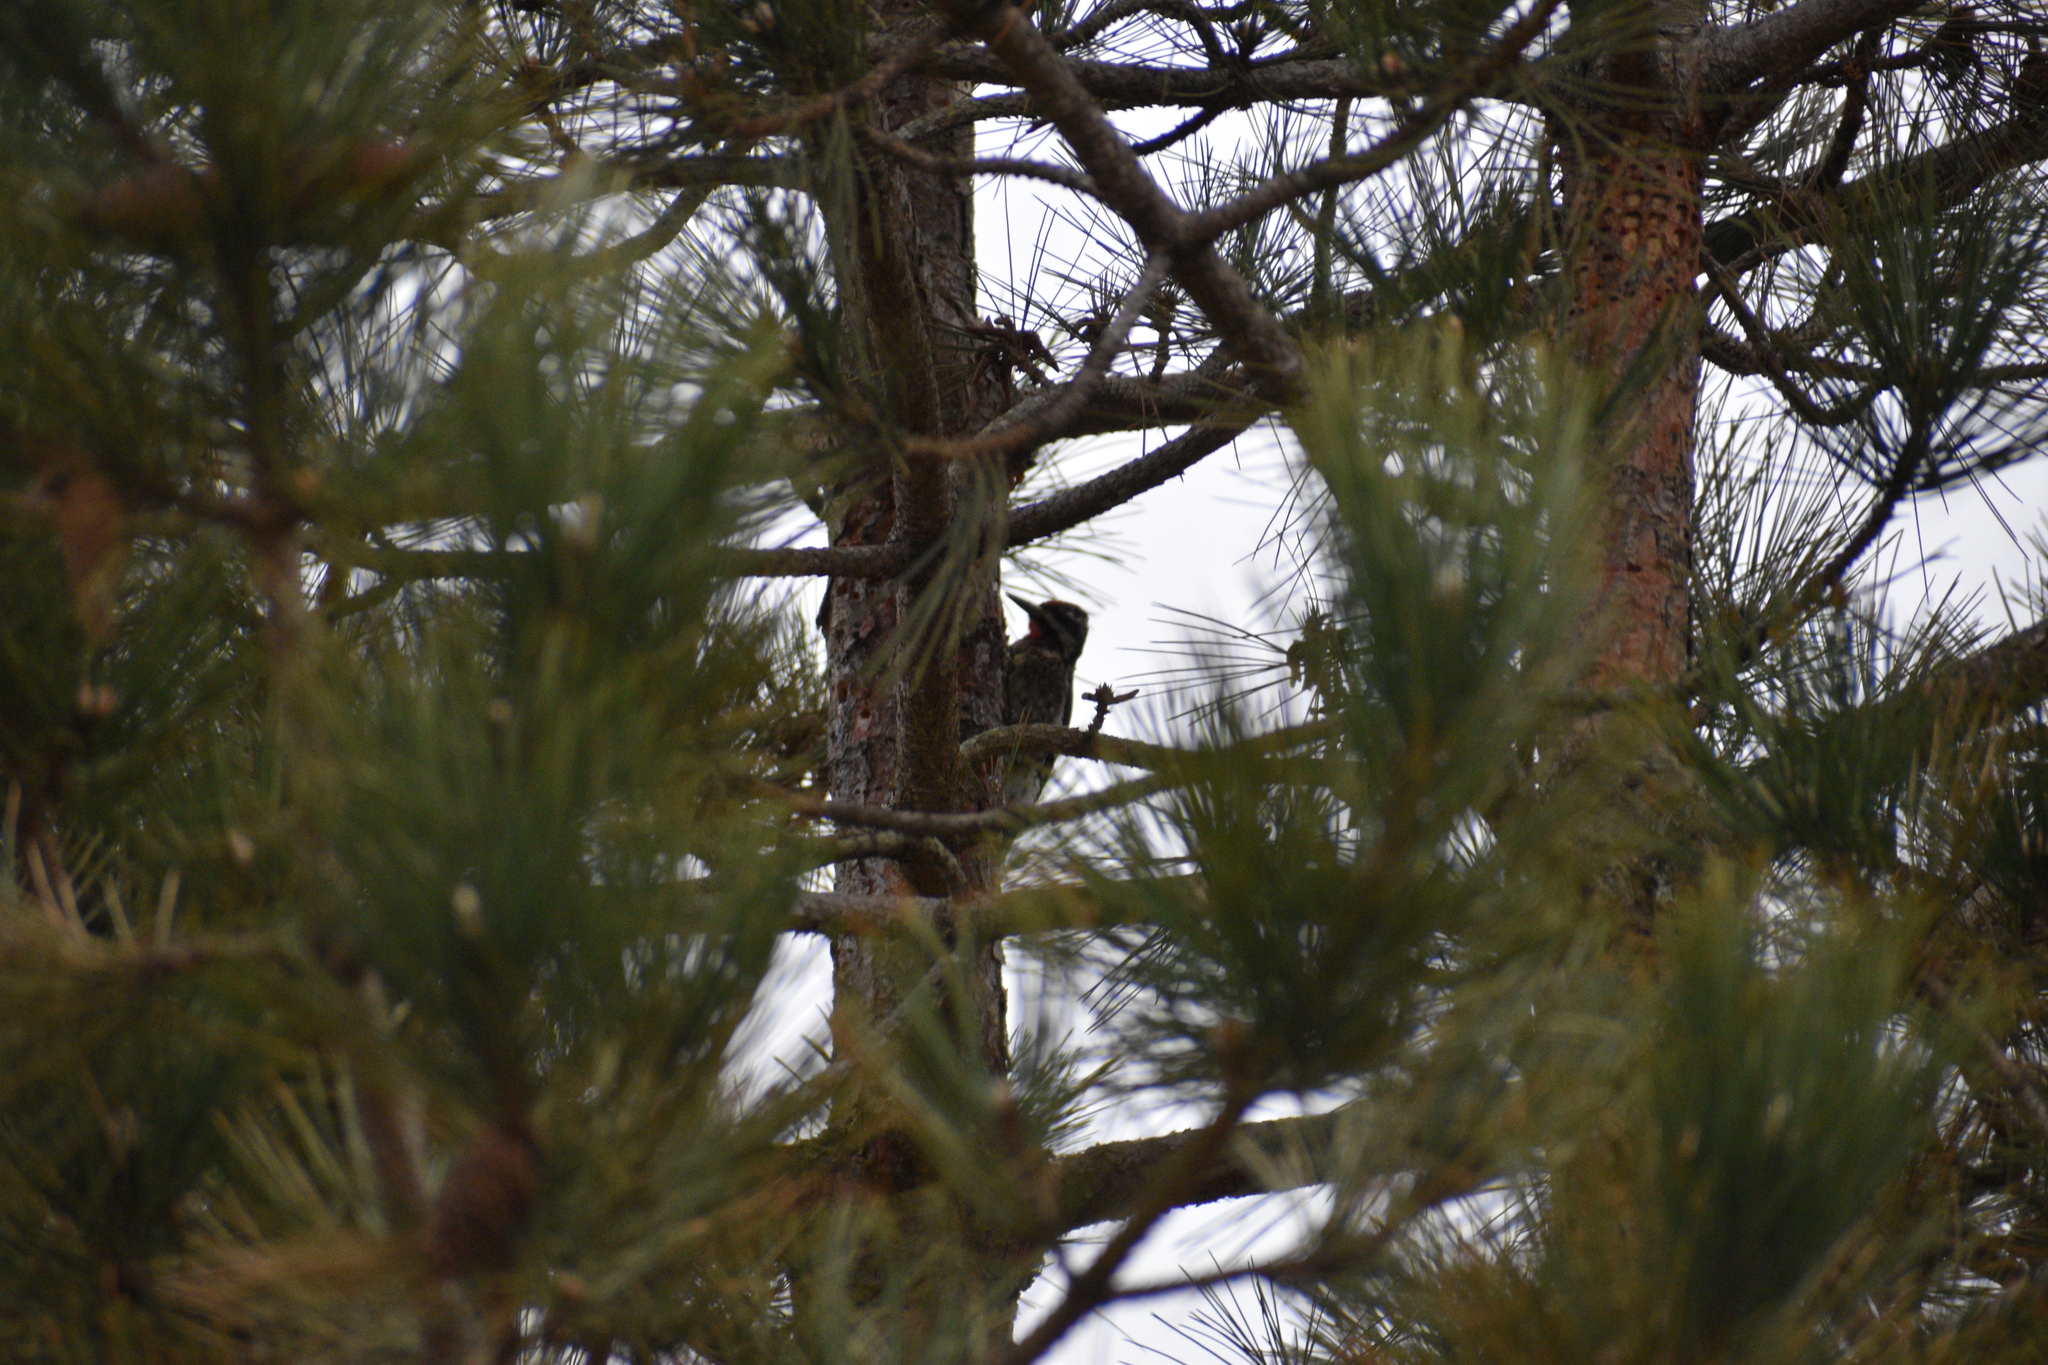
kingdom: Animalia
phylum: Chordata
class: Aves
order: Piciformes
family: Picidae
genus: Sphyrapicus
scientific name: Sphyrapicus varius
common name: Yellow-bellied sapsucker
